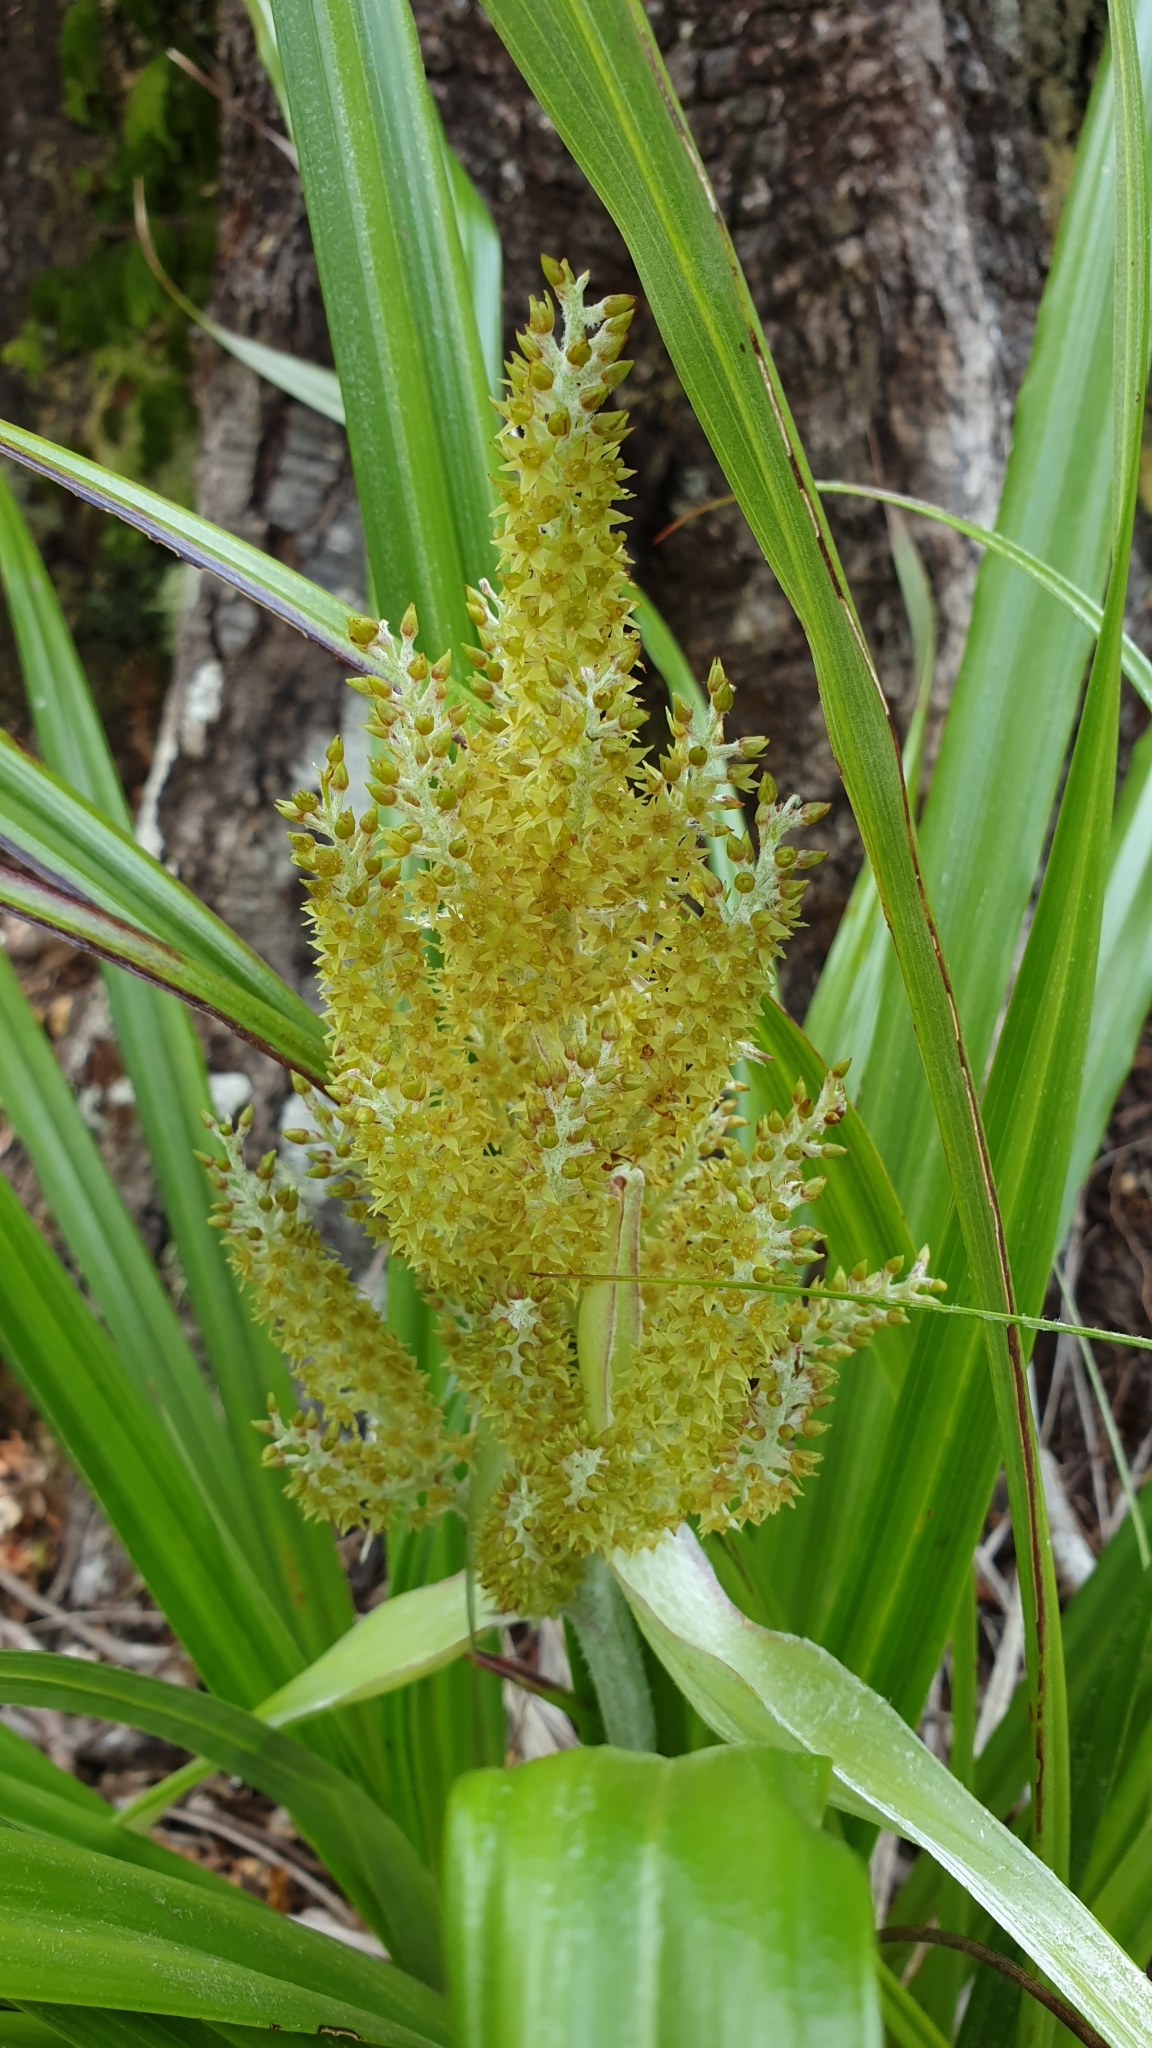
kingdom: Plantae
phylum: Tracheophyta
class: Liliopsida
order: Asparagales
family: Asteliaceae
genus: Astelia
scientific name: Astelia solandri
